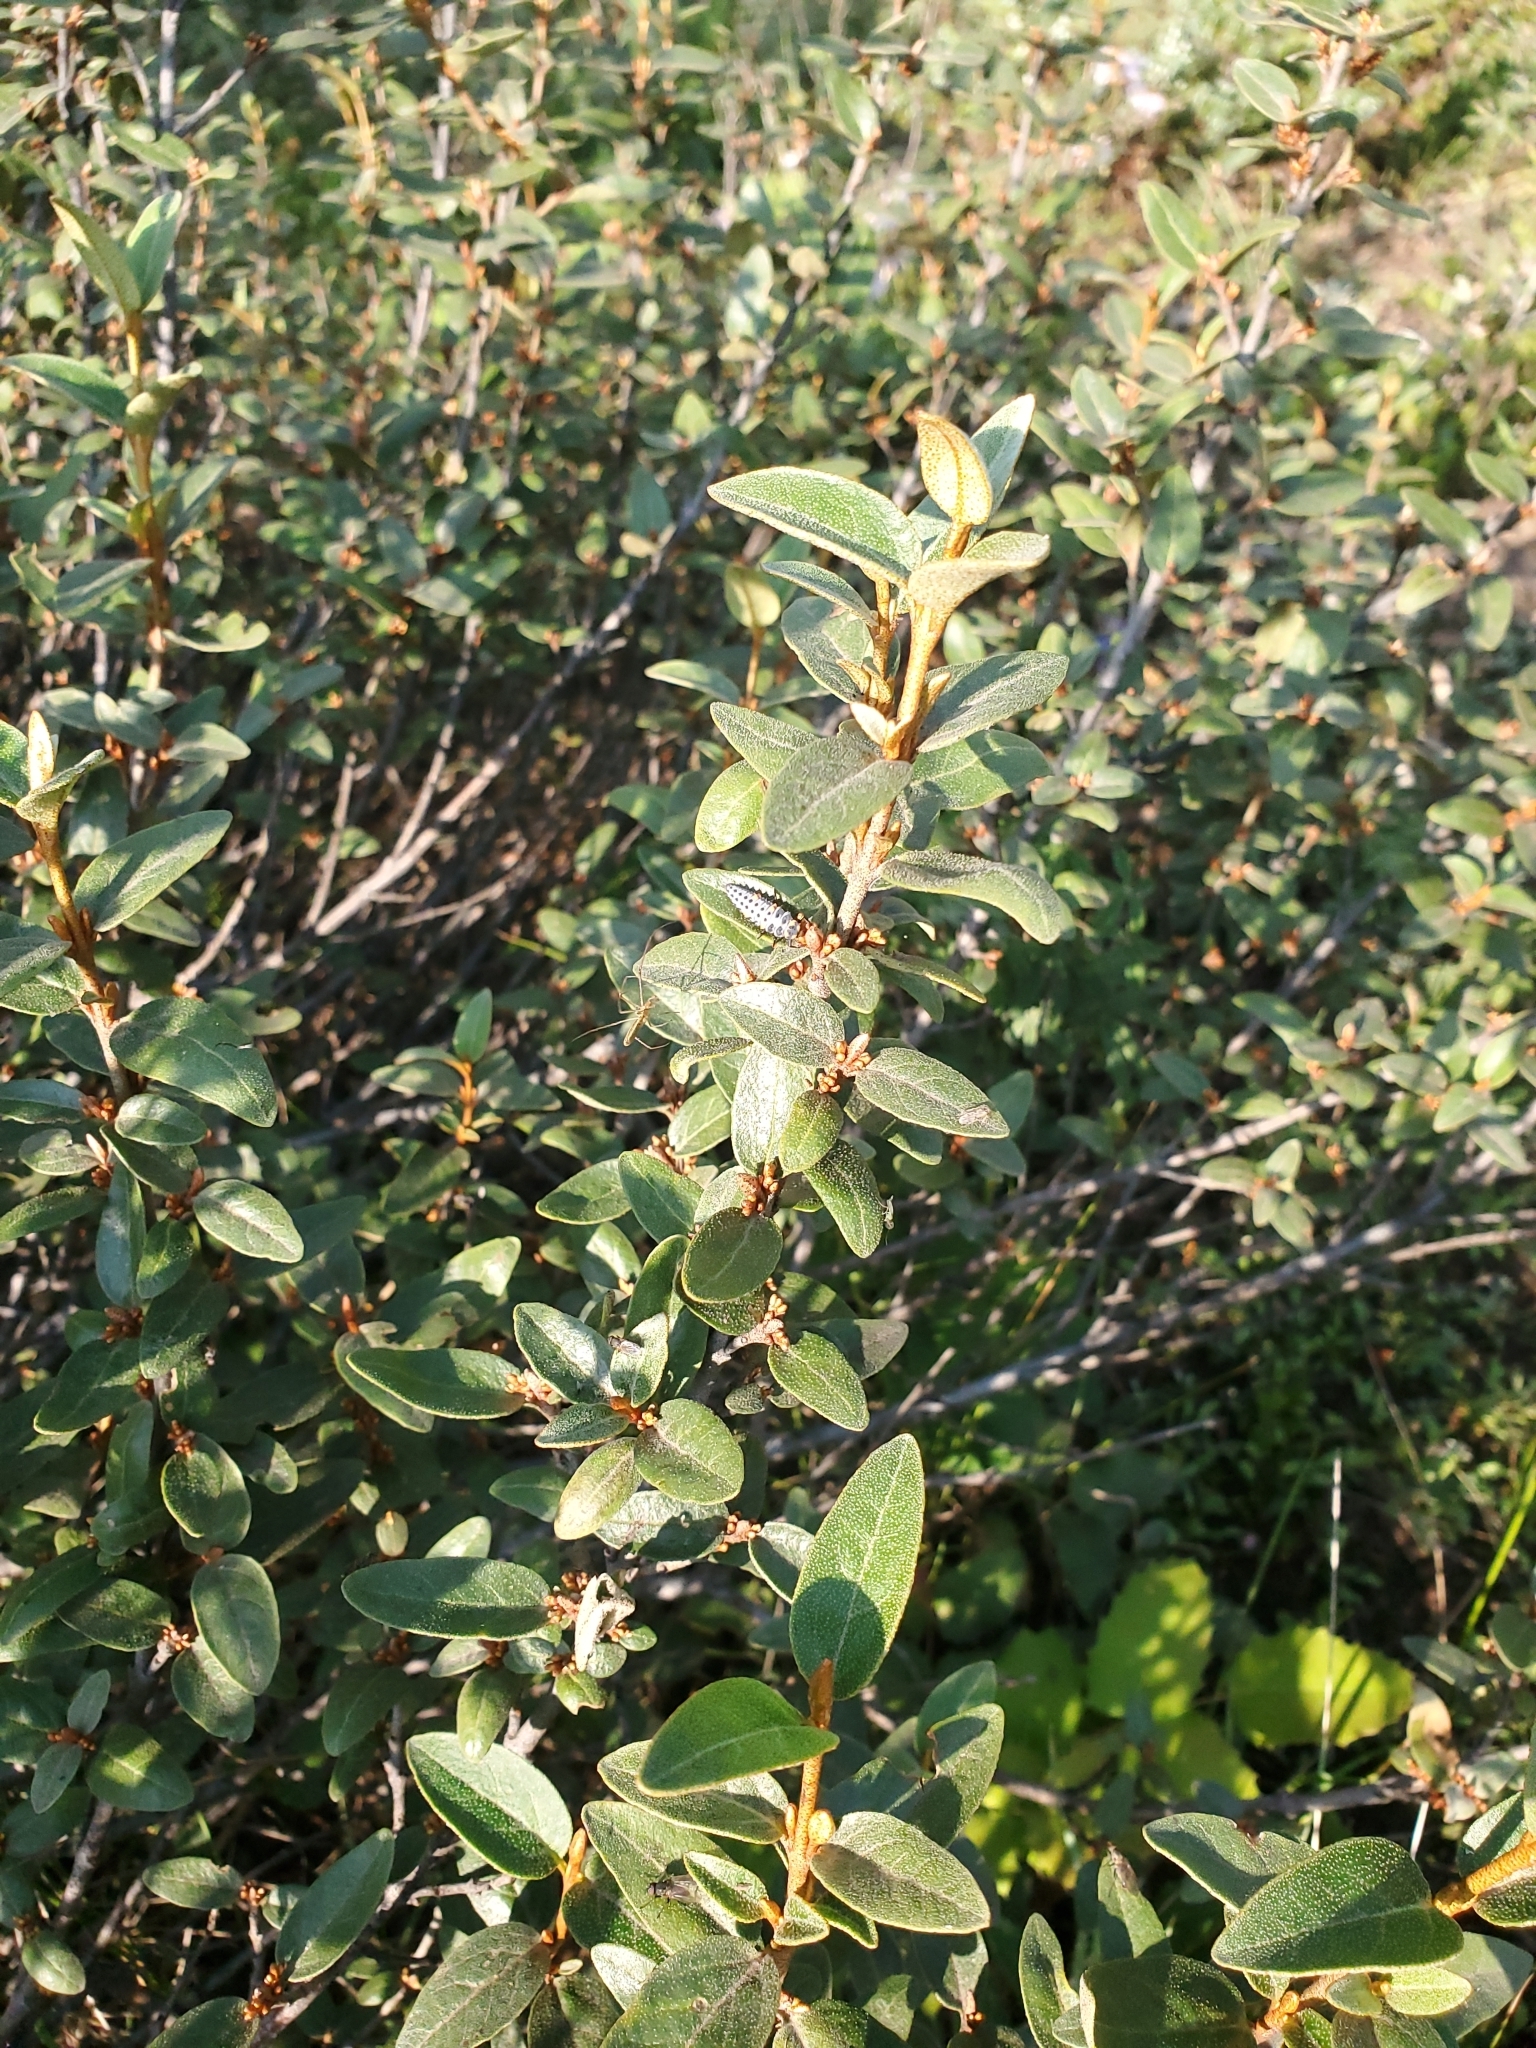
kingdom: Plantae
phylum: Tracheophyta
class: Magnoliopsida
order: Rosales
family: Elaeagnaceae
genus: Shepherdia
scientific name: Shepherdia canadensis
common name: Soapberry
